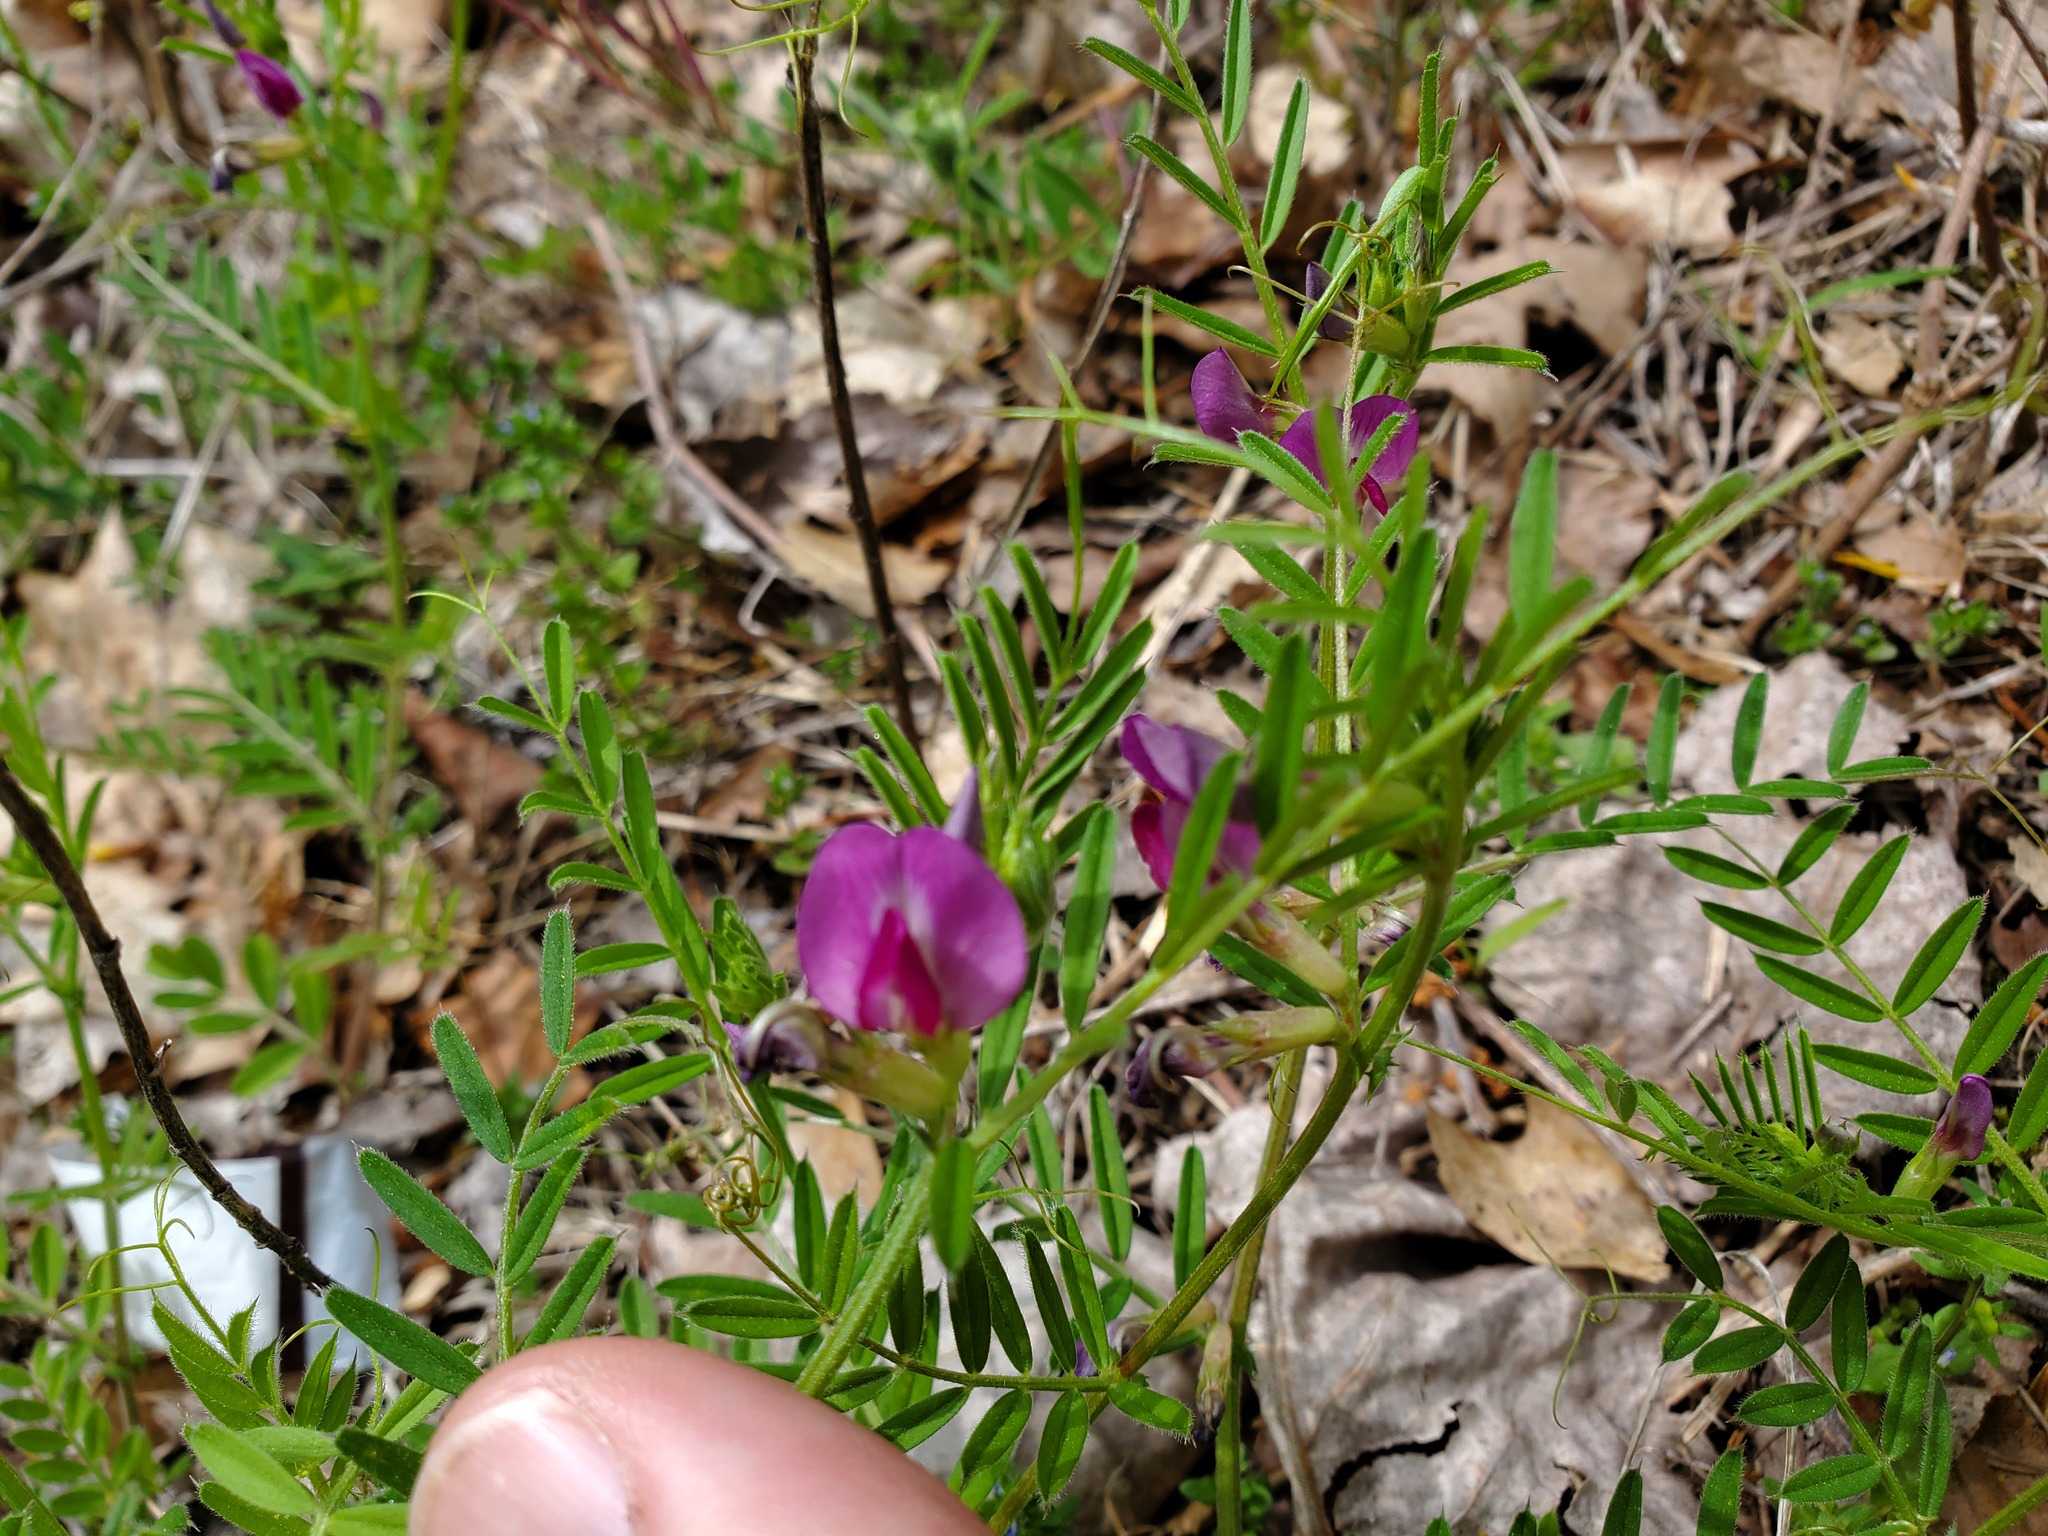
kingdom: Plantae
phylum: Tracheophyta
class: Magnoliopsida
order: Fabales
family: Fabaceae
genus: Vicia
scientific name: Vicia sativa
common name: Garden vetch
